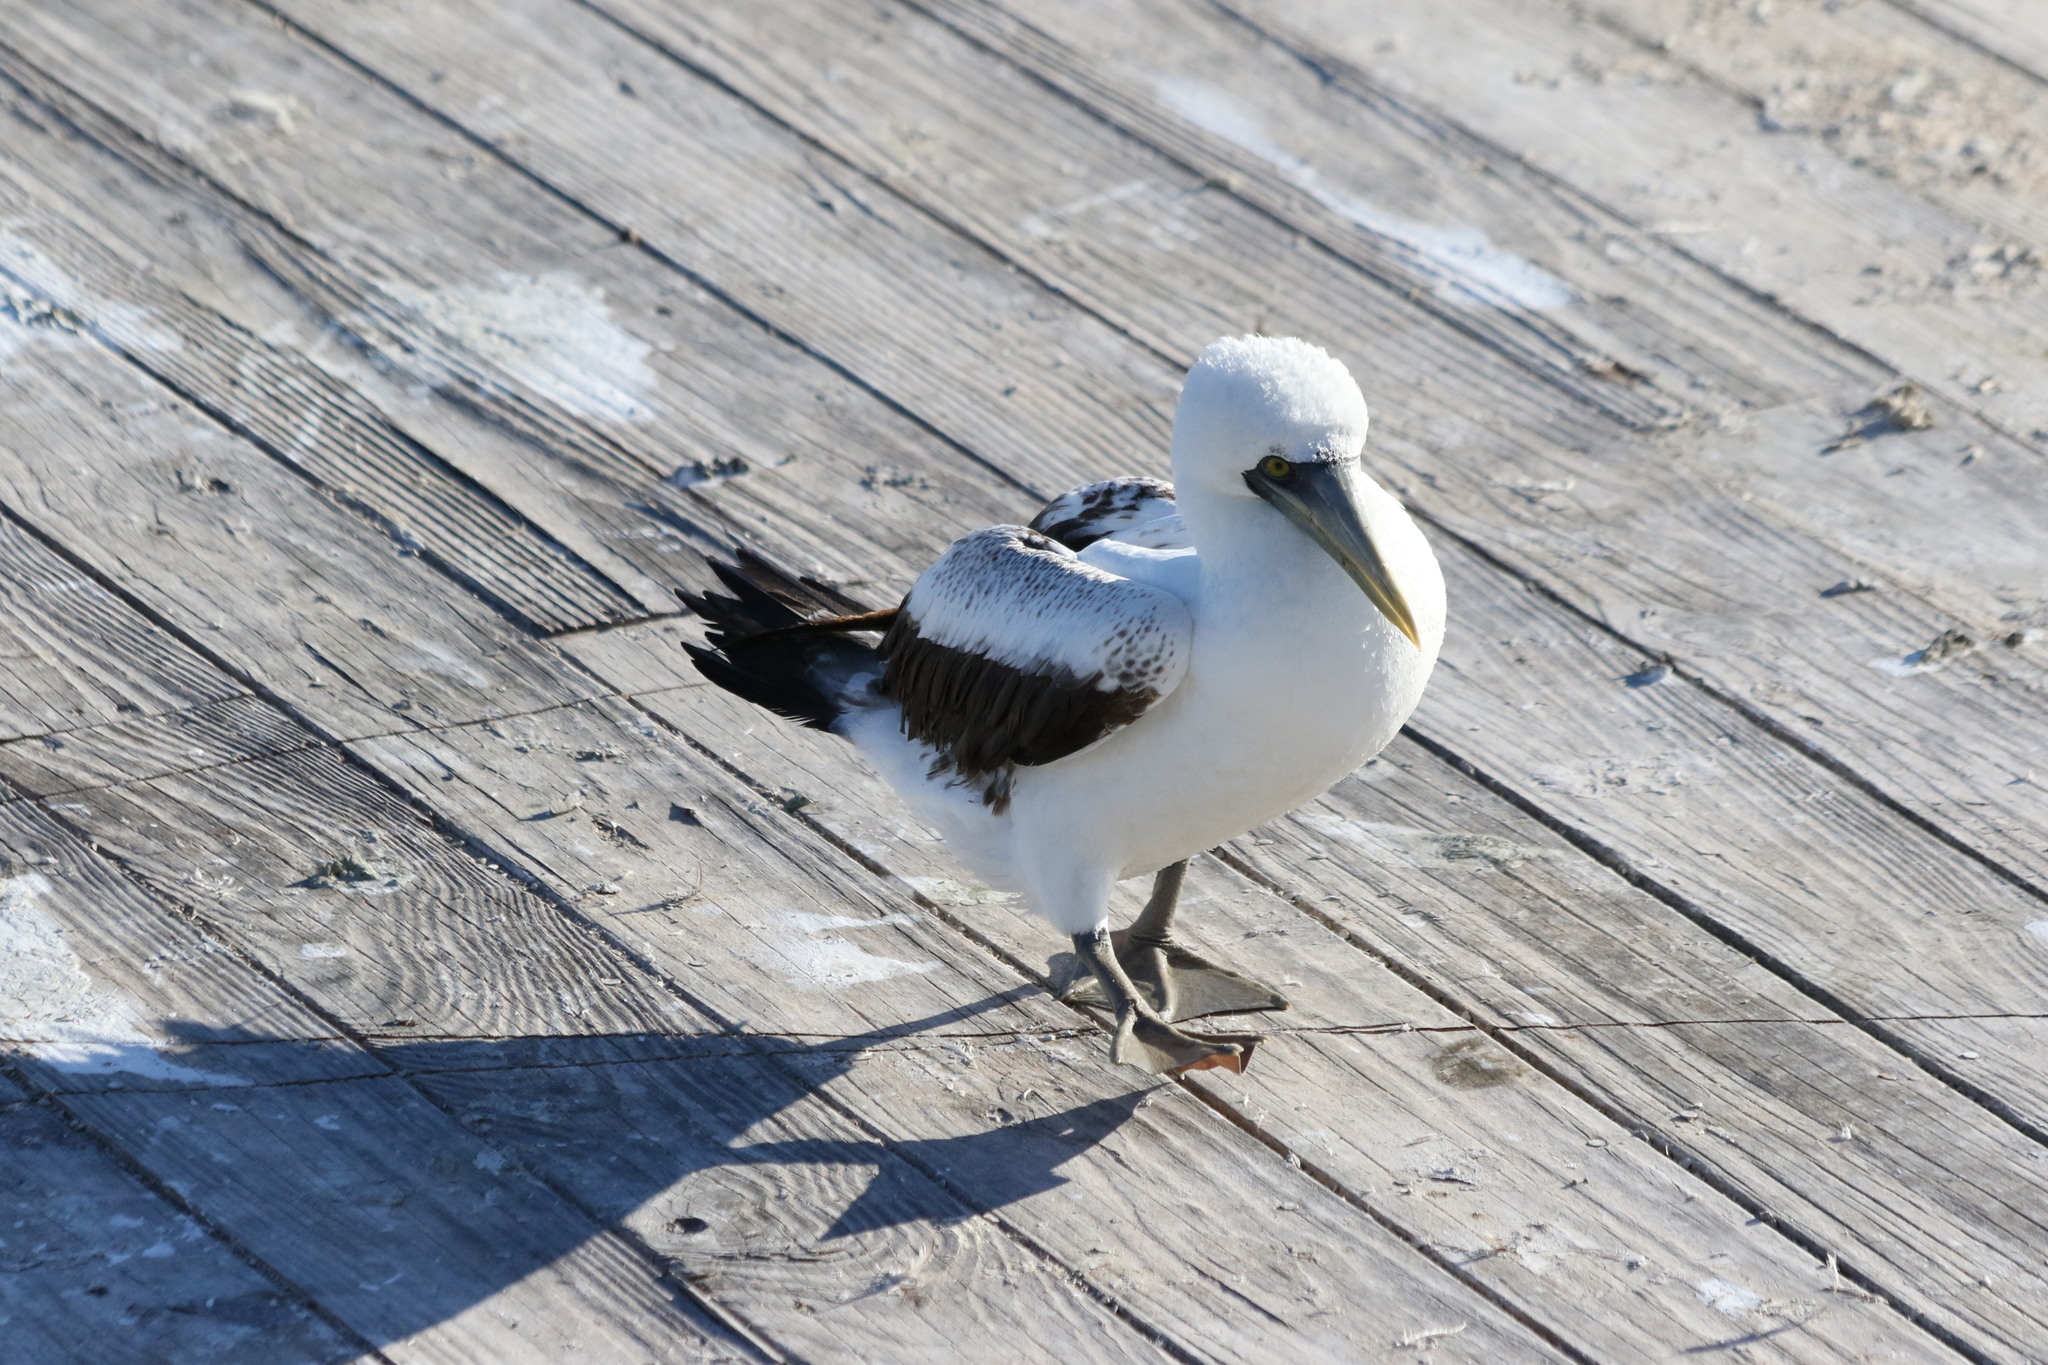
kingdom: Animalia
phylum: Chordata
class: Aves
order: Suliformes
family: Sulidae
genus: Sula
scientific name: Sula dactylatra
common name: Masked booby
